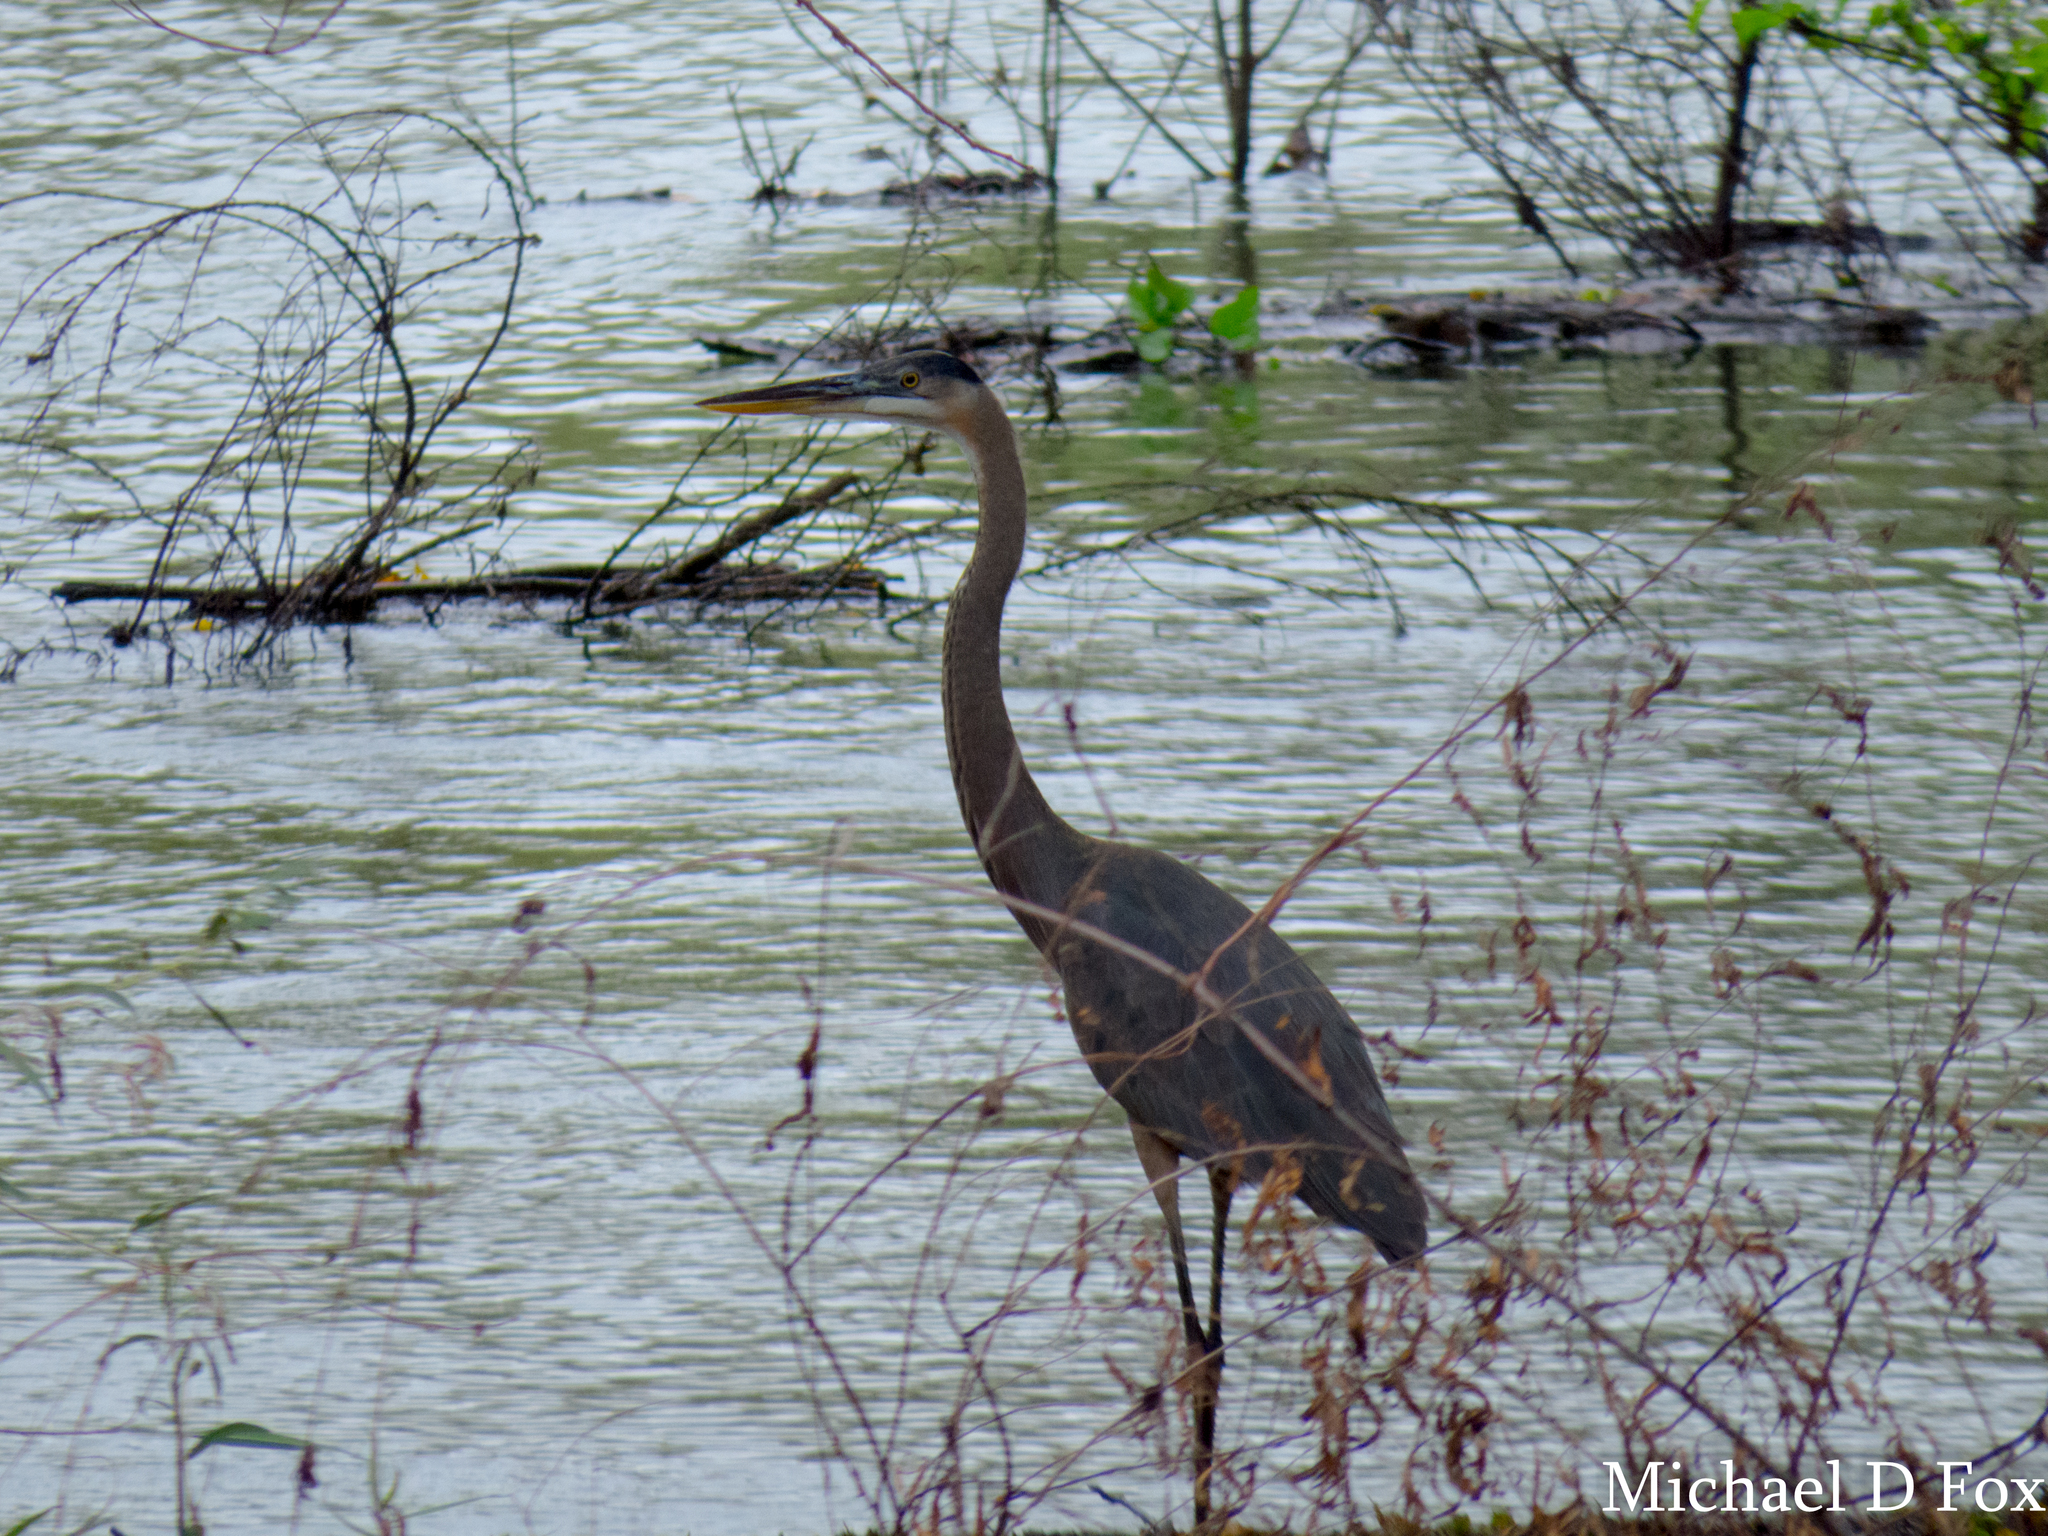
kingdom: Animalia
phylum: Chordata
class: Aves
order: Pelecaniformes
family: Ardeidae
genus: Ardea
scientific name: Ardea herodias
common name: Great blue heron
